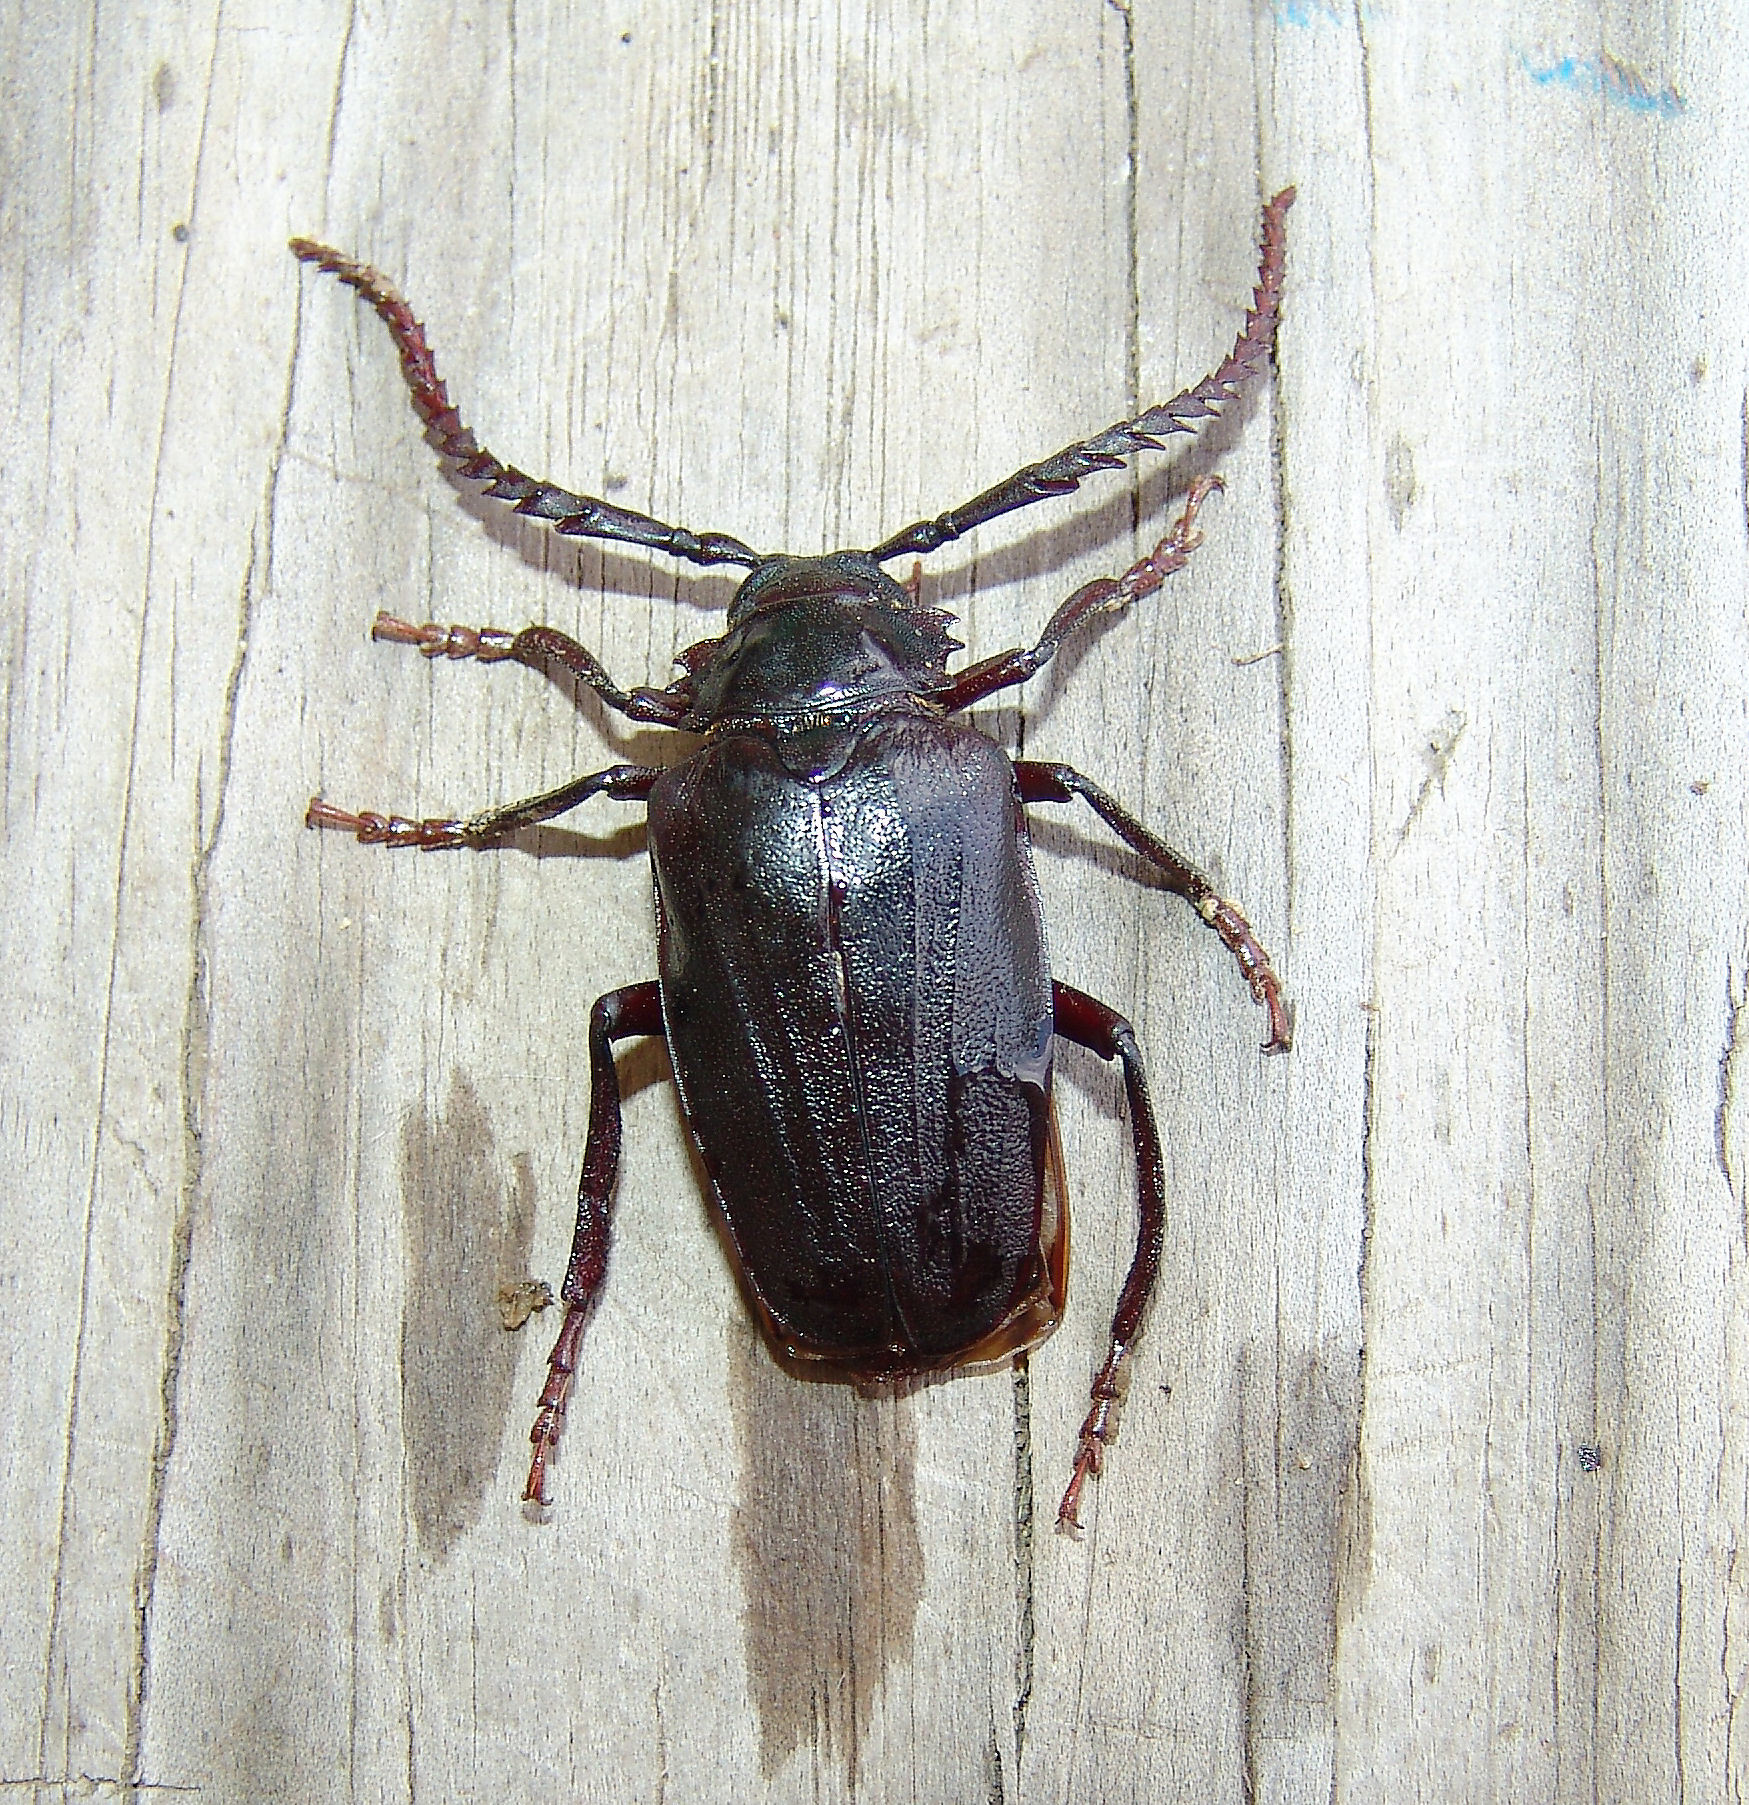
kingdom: Animalia
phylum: Arthropoda
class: Insecta
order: Coleoptera
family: Cerambycidae
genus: Prionus
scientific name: Prionus imbricornis
